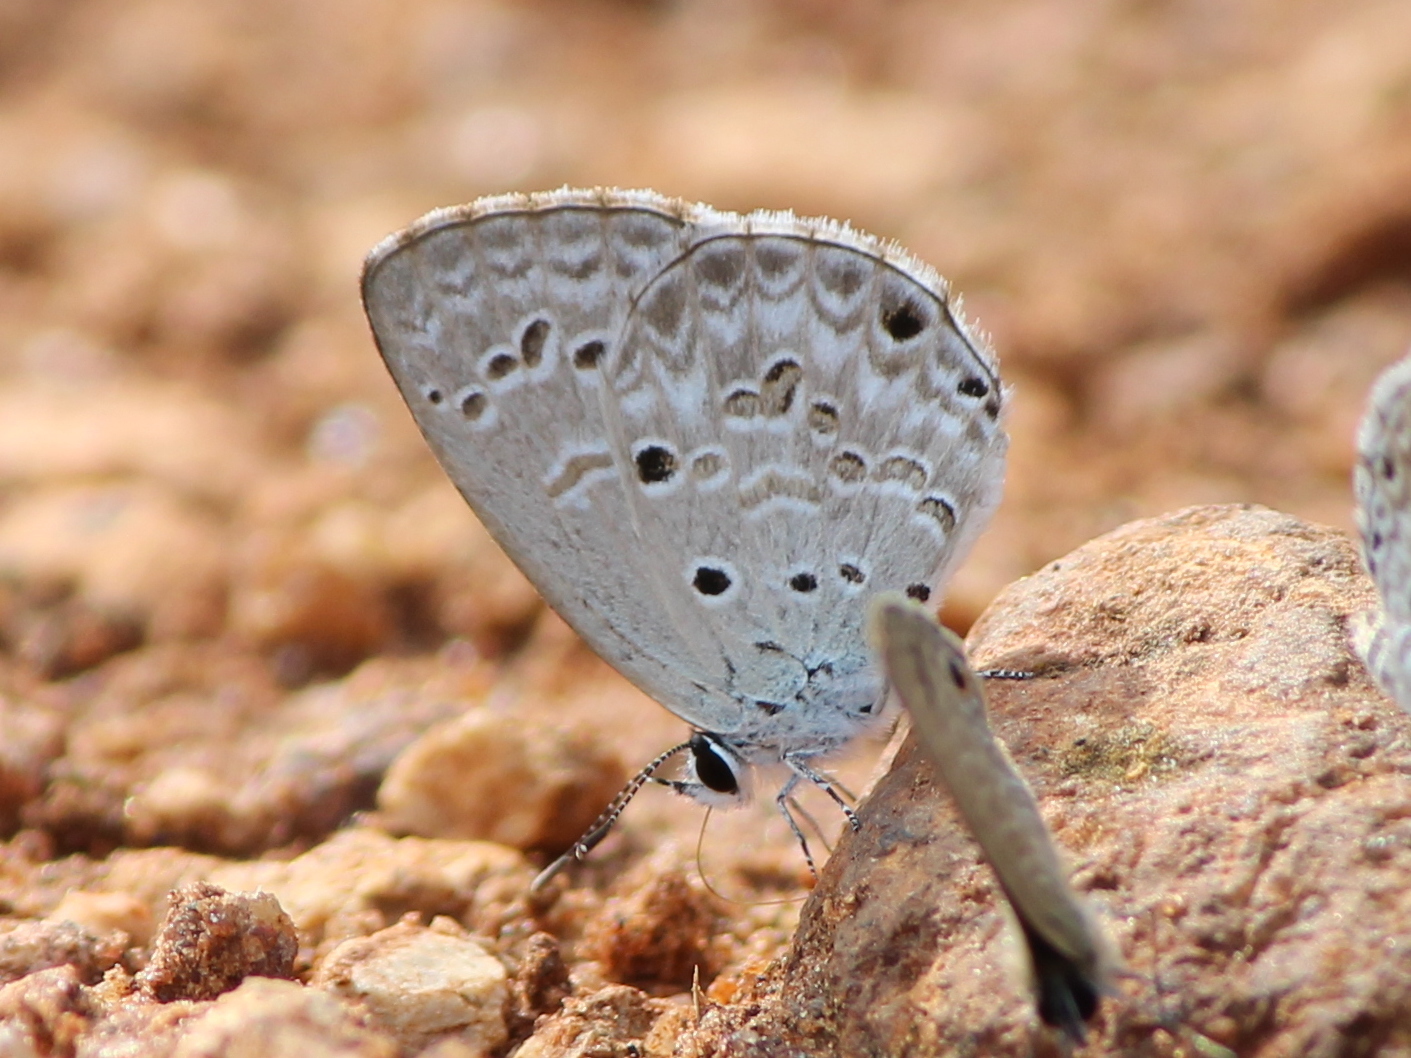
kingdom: Animalia
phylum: Arthropoda
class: Insecta
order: Lepidoptera
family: Lycaenidae
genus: Chilades
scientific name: Chilades laius
